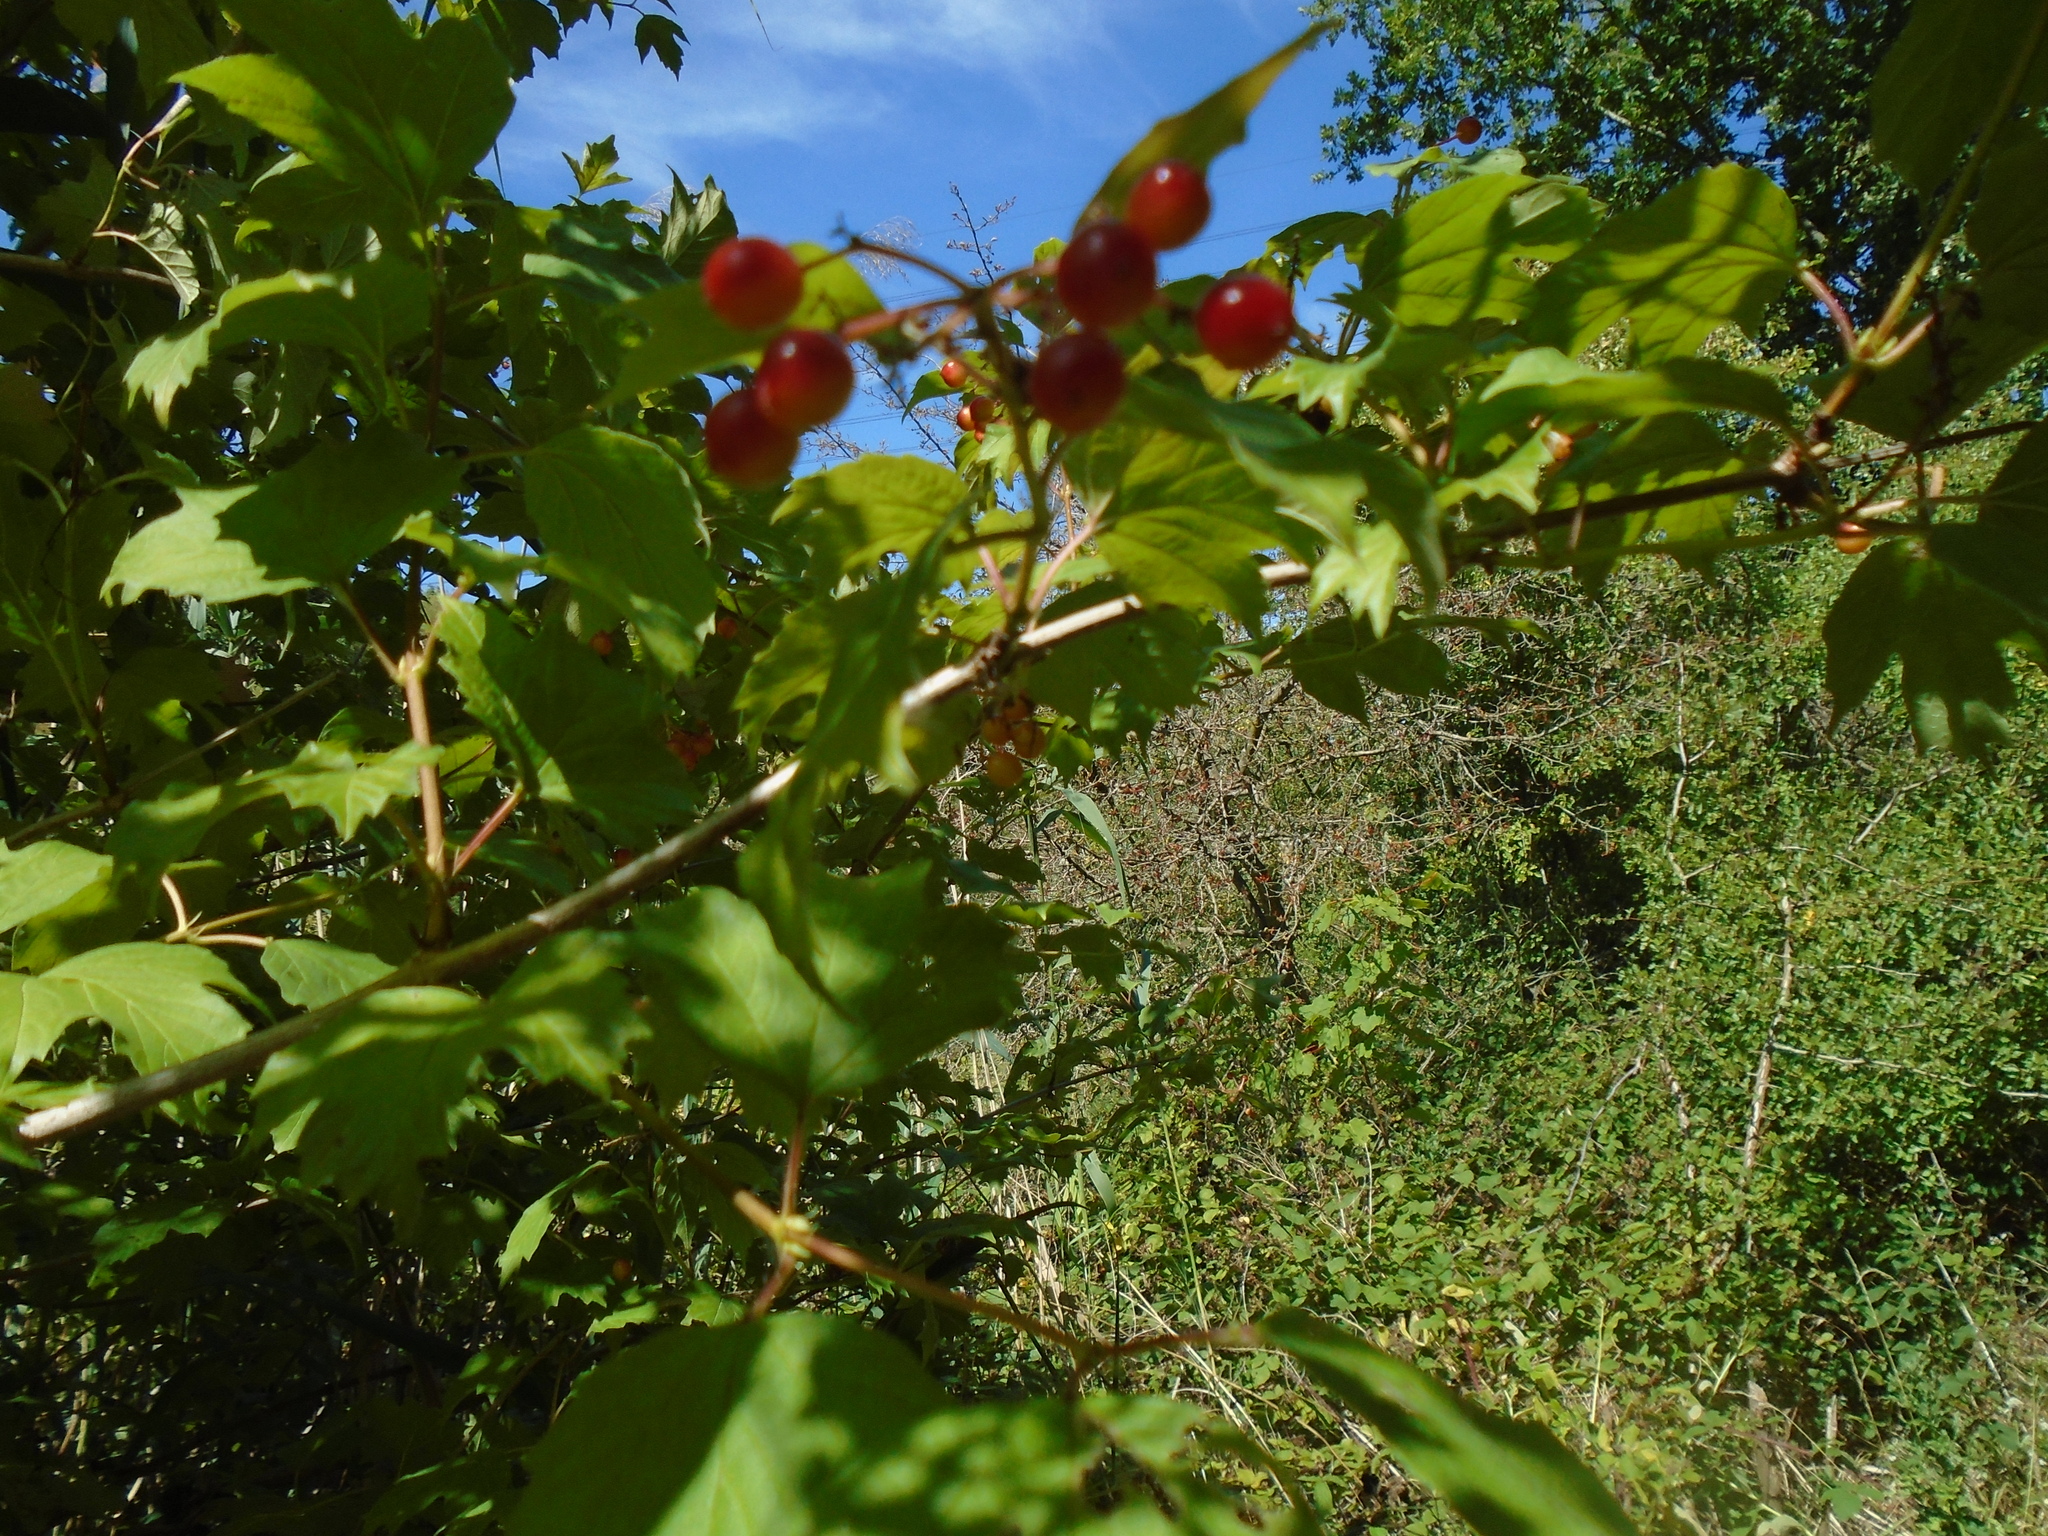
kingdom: Plantae
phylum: Tracheophyta
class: Magnoliopsida
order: Dipsacales
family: Viburnaceae
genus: Viburnum
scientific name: Viburnum opulus
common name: Guelder-rose
